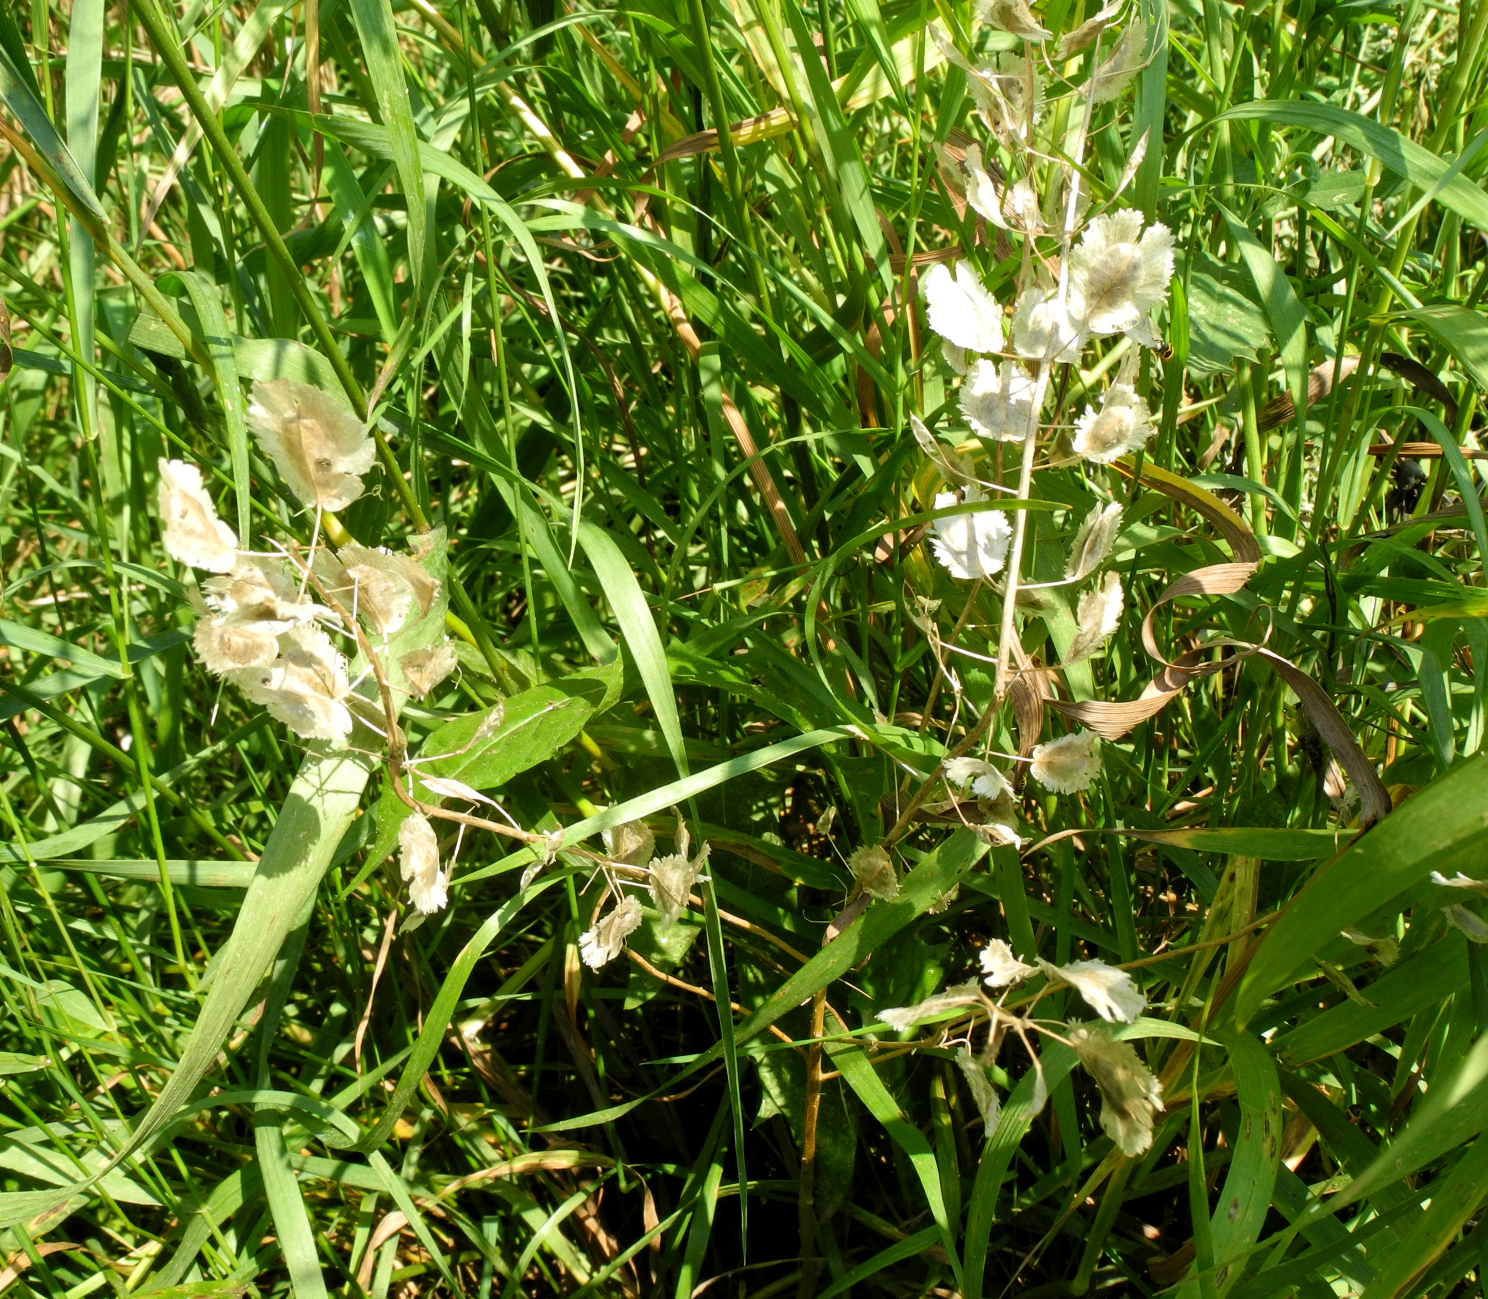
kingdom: Plantae
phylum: Tracheophyta
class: Magnoliopsida
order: Brassicales
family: Brassicaceae
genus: Thlaspi
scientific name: Thlaspi arvense
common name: Field pennycress
